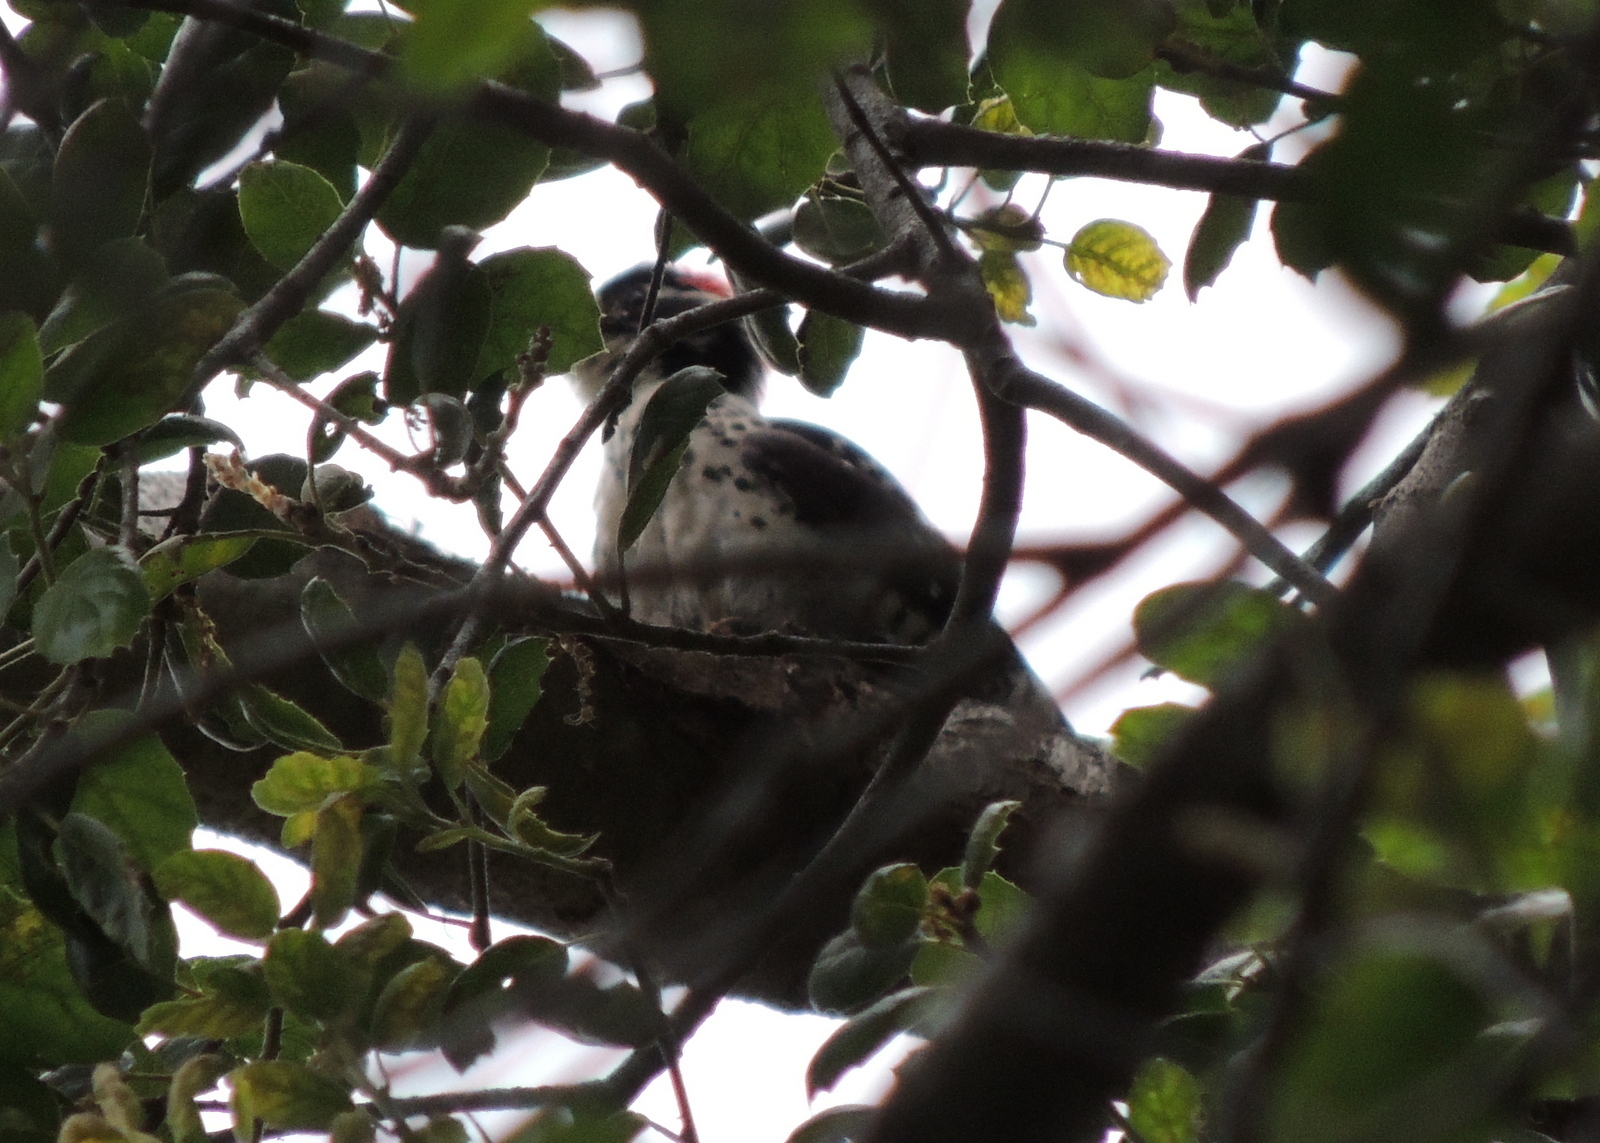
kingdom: Animalia
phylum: Chordata
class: Aves
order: Piciformes
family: Picidae
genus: Dryobates
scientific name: Dryobates nuttallii
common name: Nuttall's woodpecker
